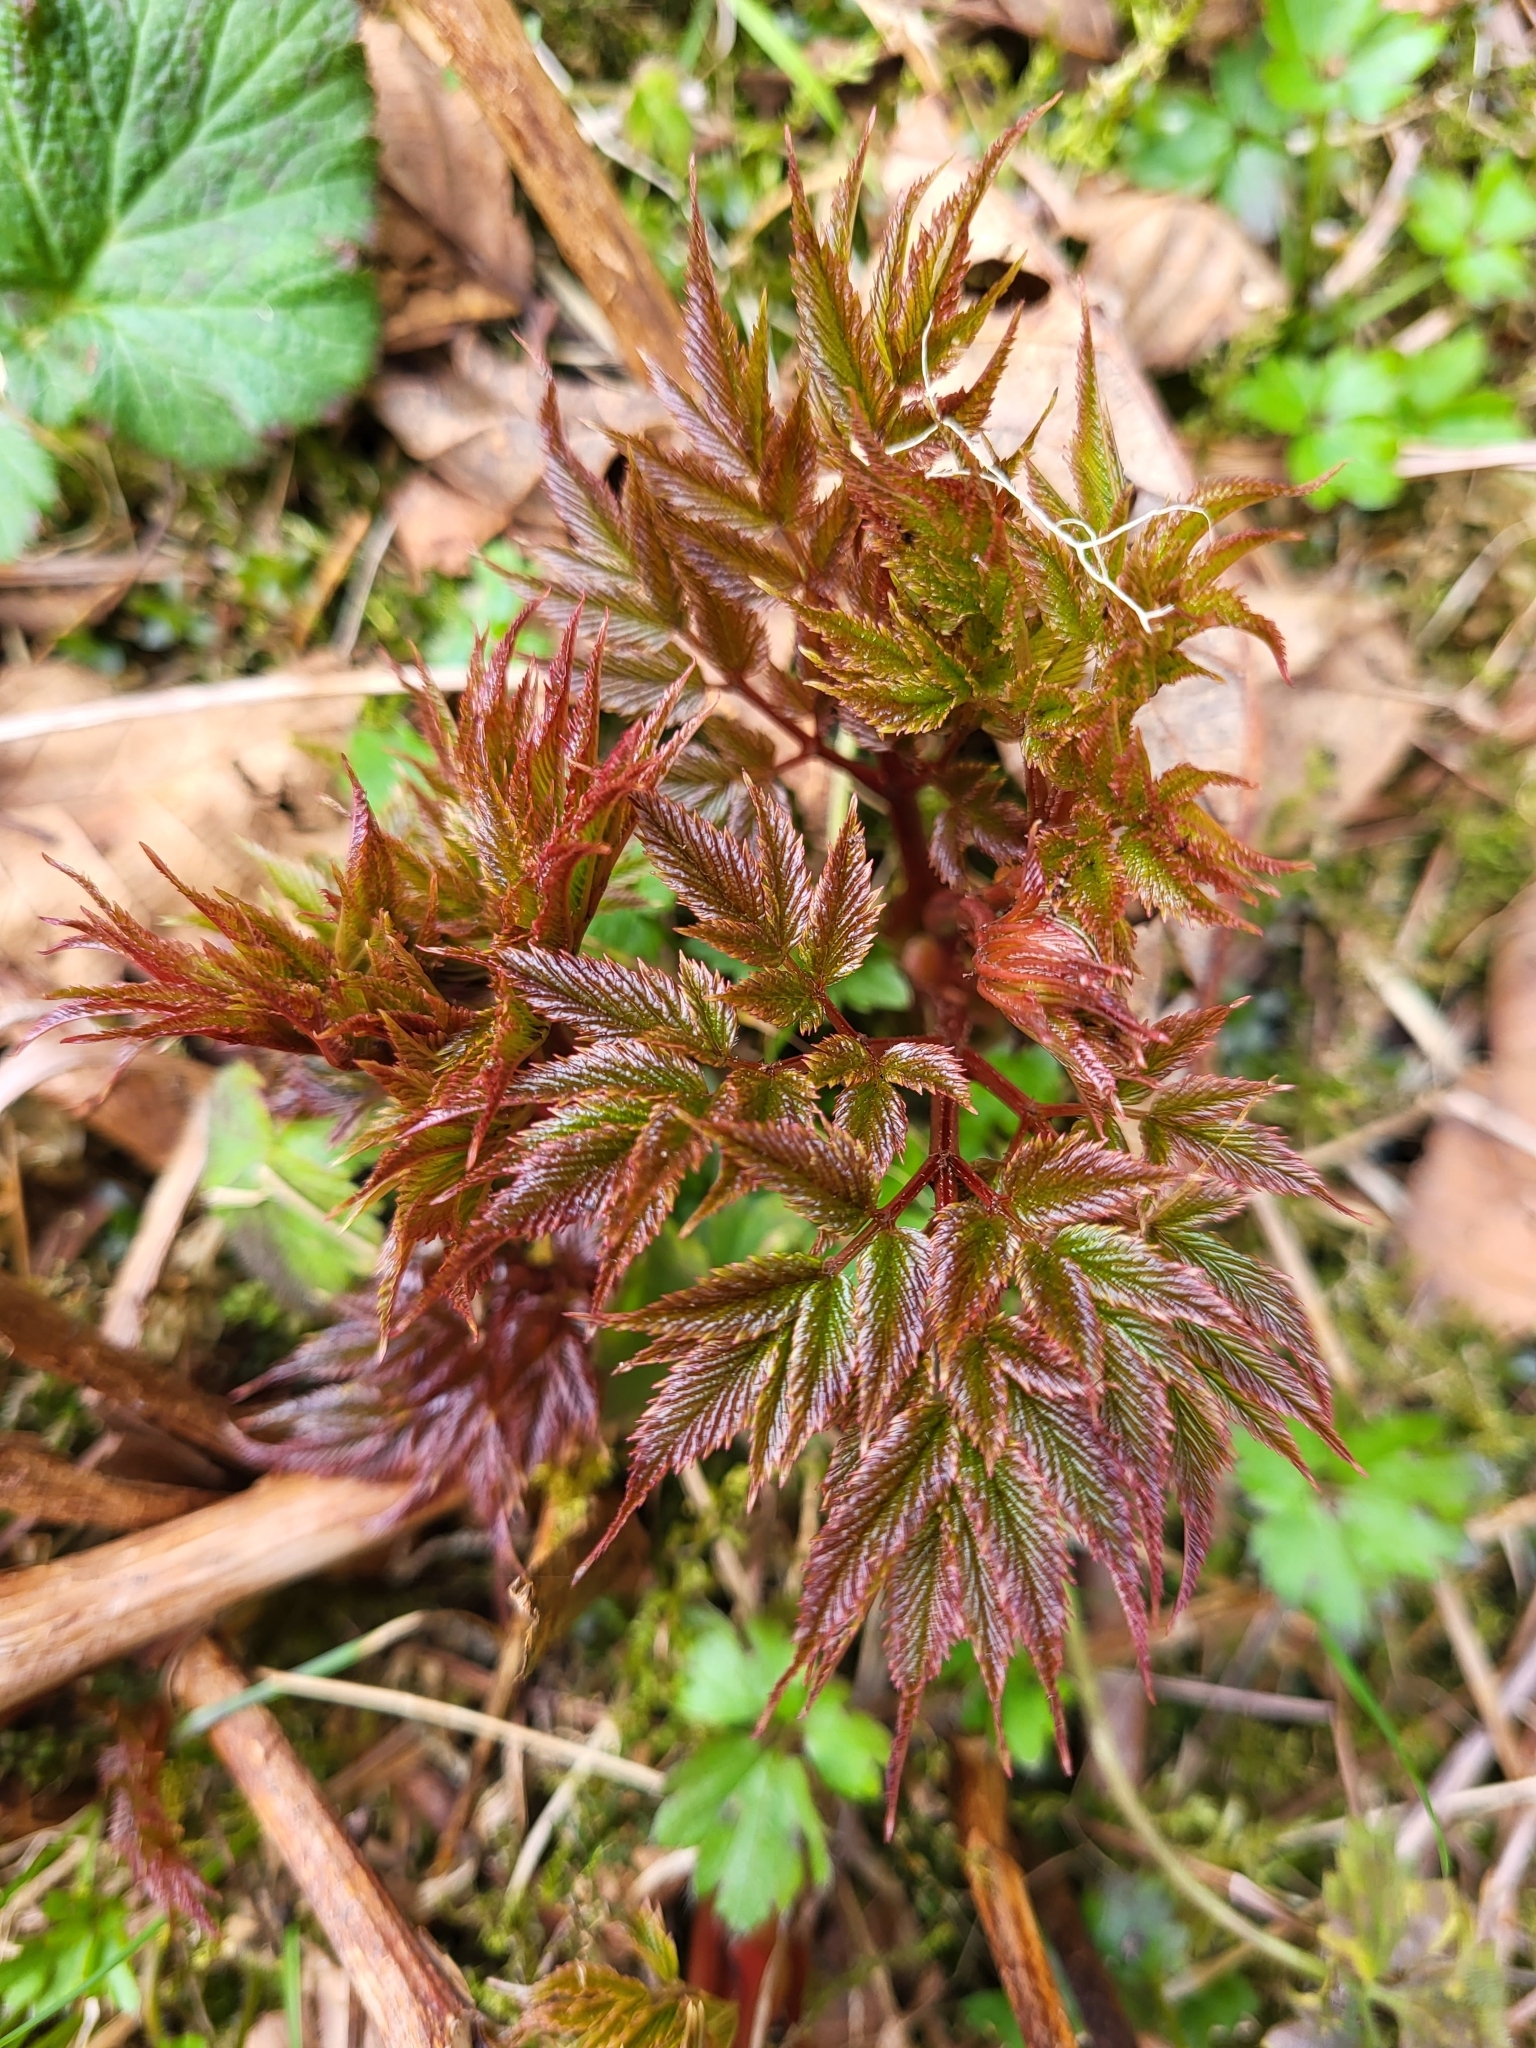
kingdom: Plantae
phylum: Tracheophyta
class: Magnoliopsida
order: Rosales
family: Rosaceae
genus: Aruncus
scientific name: Aruncus dioicus
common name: Buck's-beard
